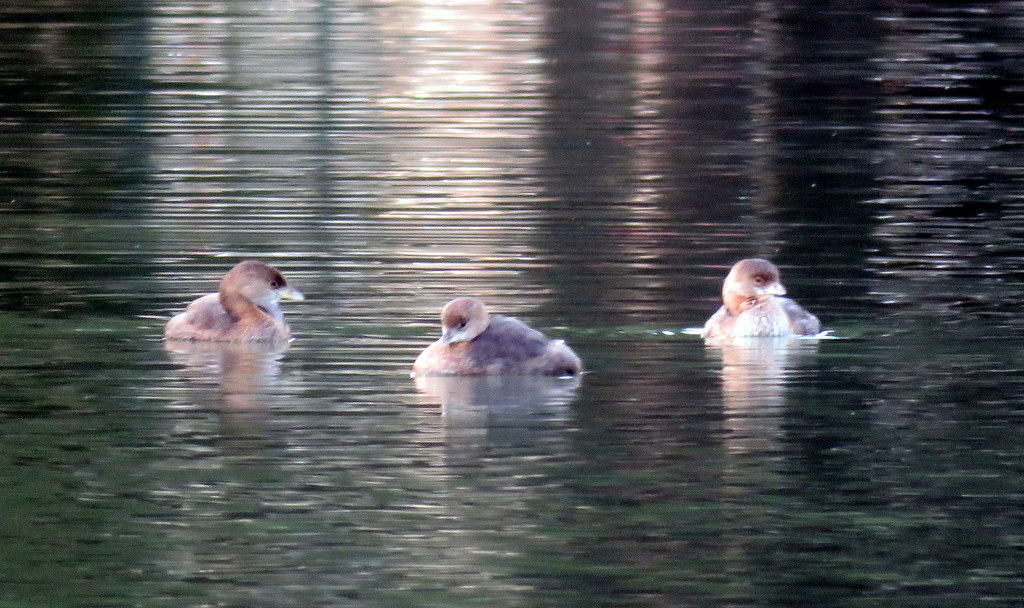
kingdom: Animalia
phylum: Chordata
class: Aves
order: Podicipediformes
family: Podicipedidae
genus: Podilymbus
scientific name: Podilymbus podiceps
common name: Pied-billed grebe
